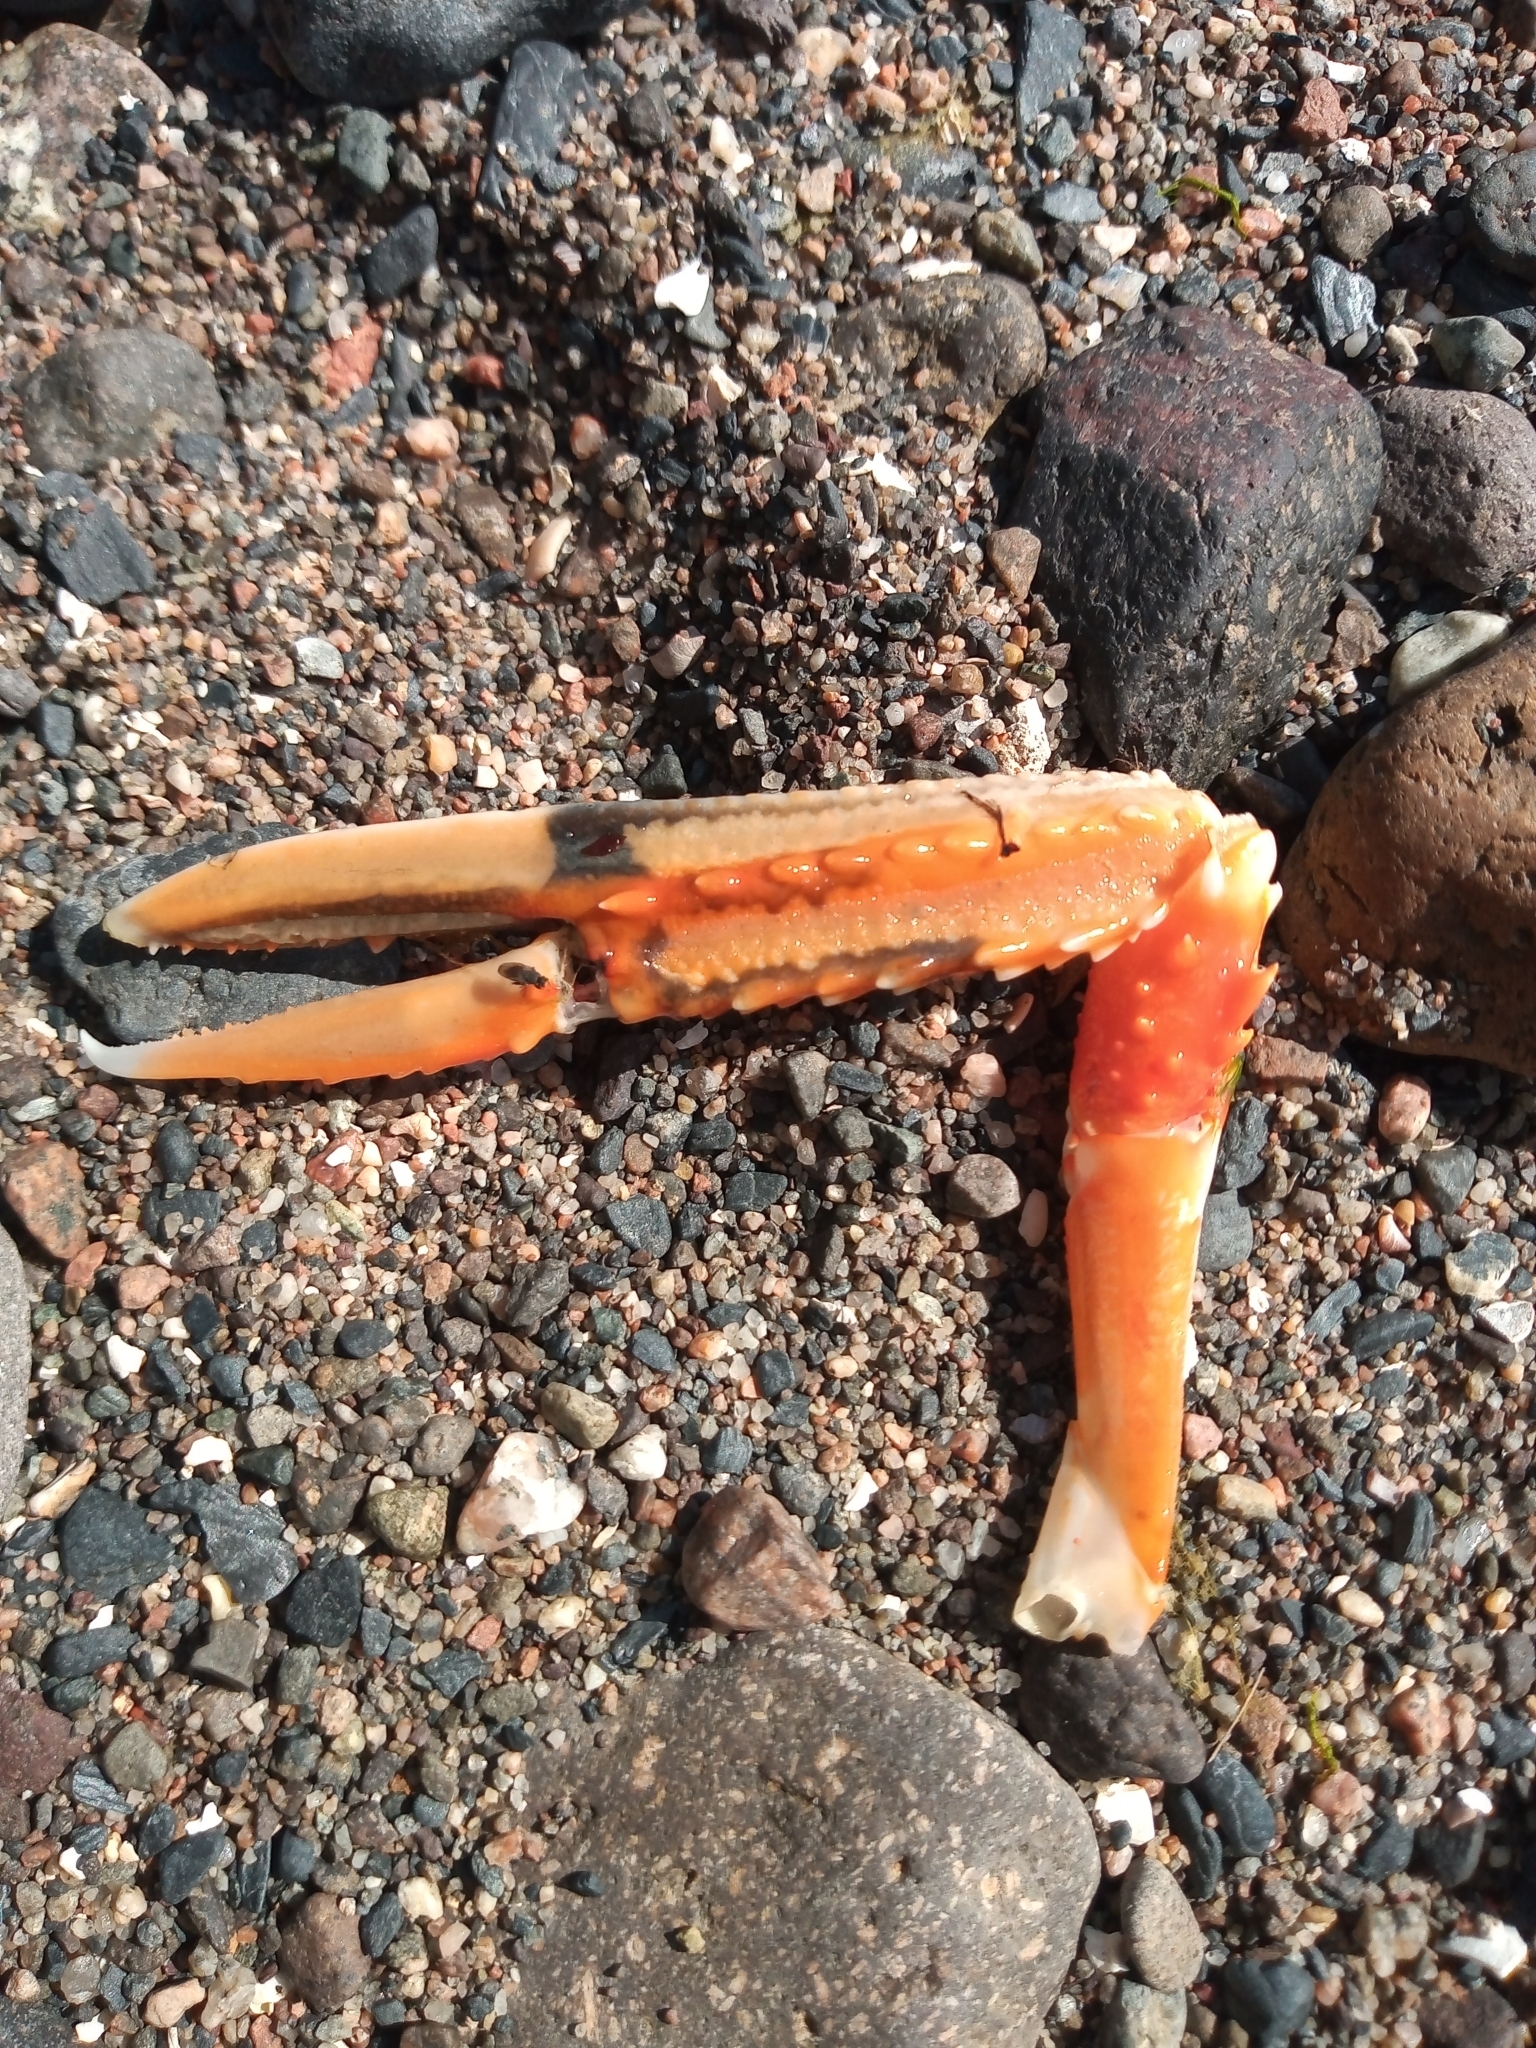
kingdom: Animalia
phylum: Arthropoda
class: Malacostraca
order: Decapoda
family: Nephropidae
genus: Nephrops
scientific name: Nephrops norvegicus
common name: Norway lobster
